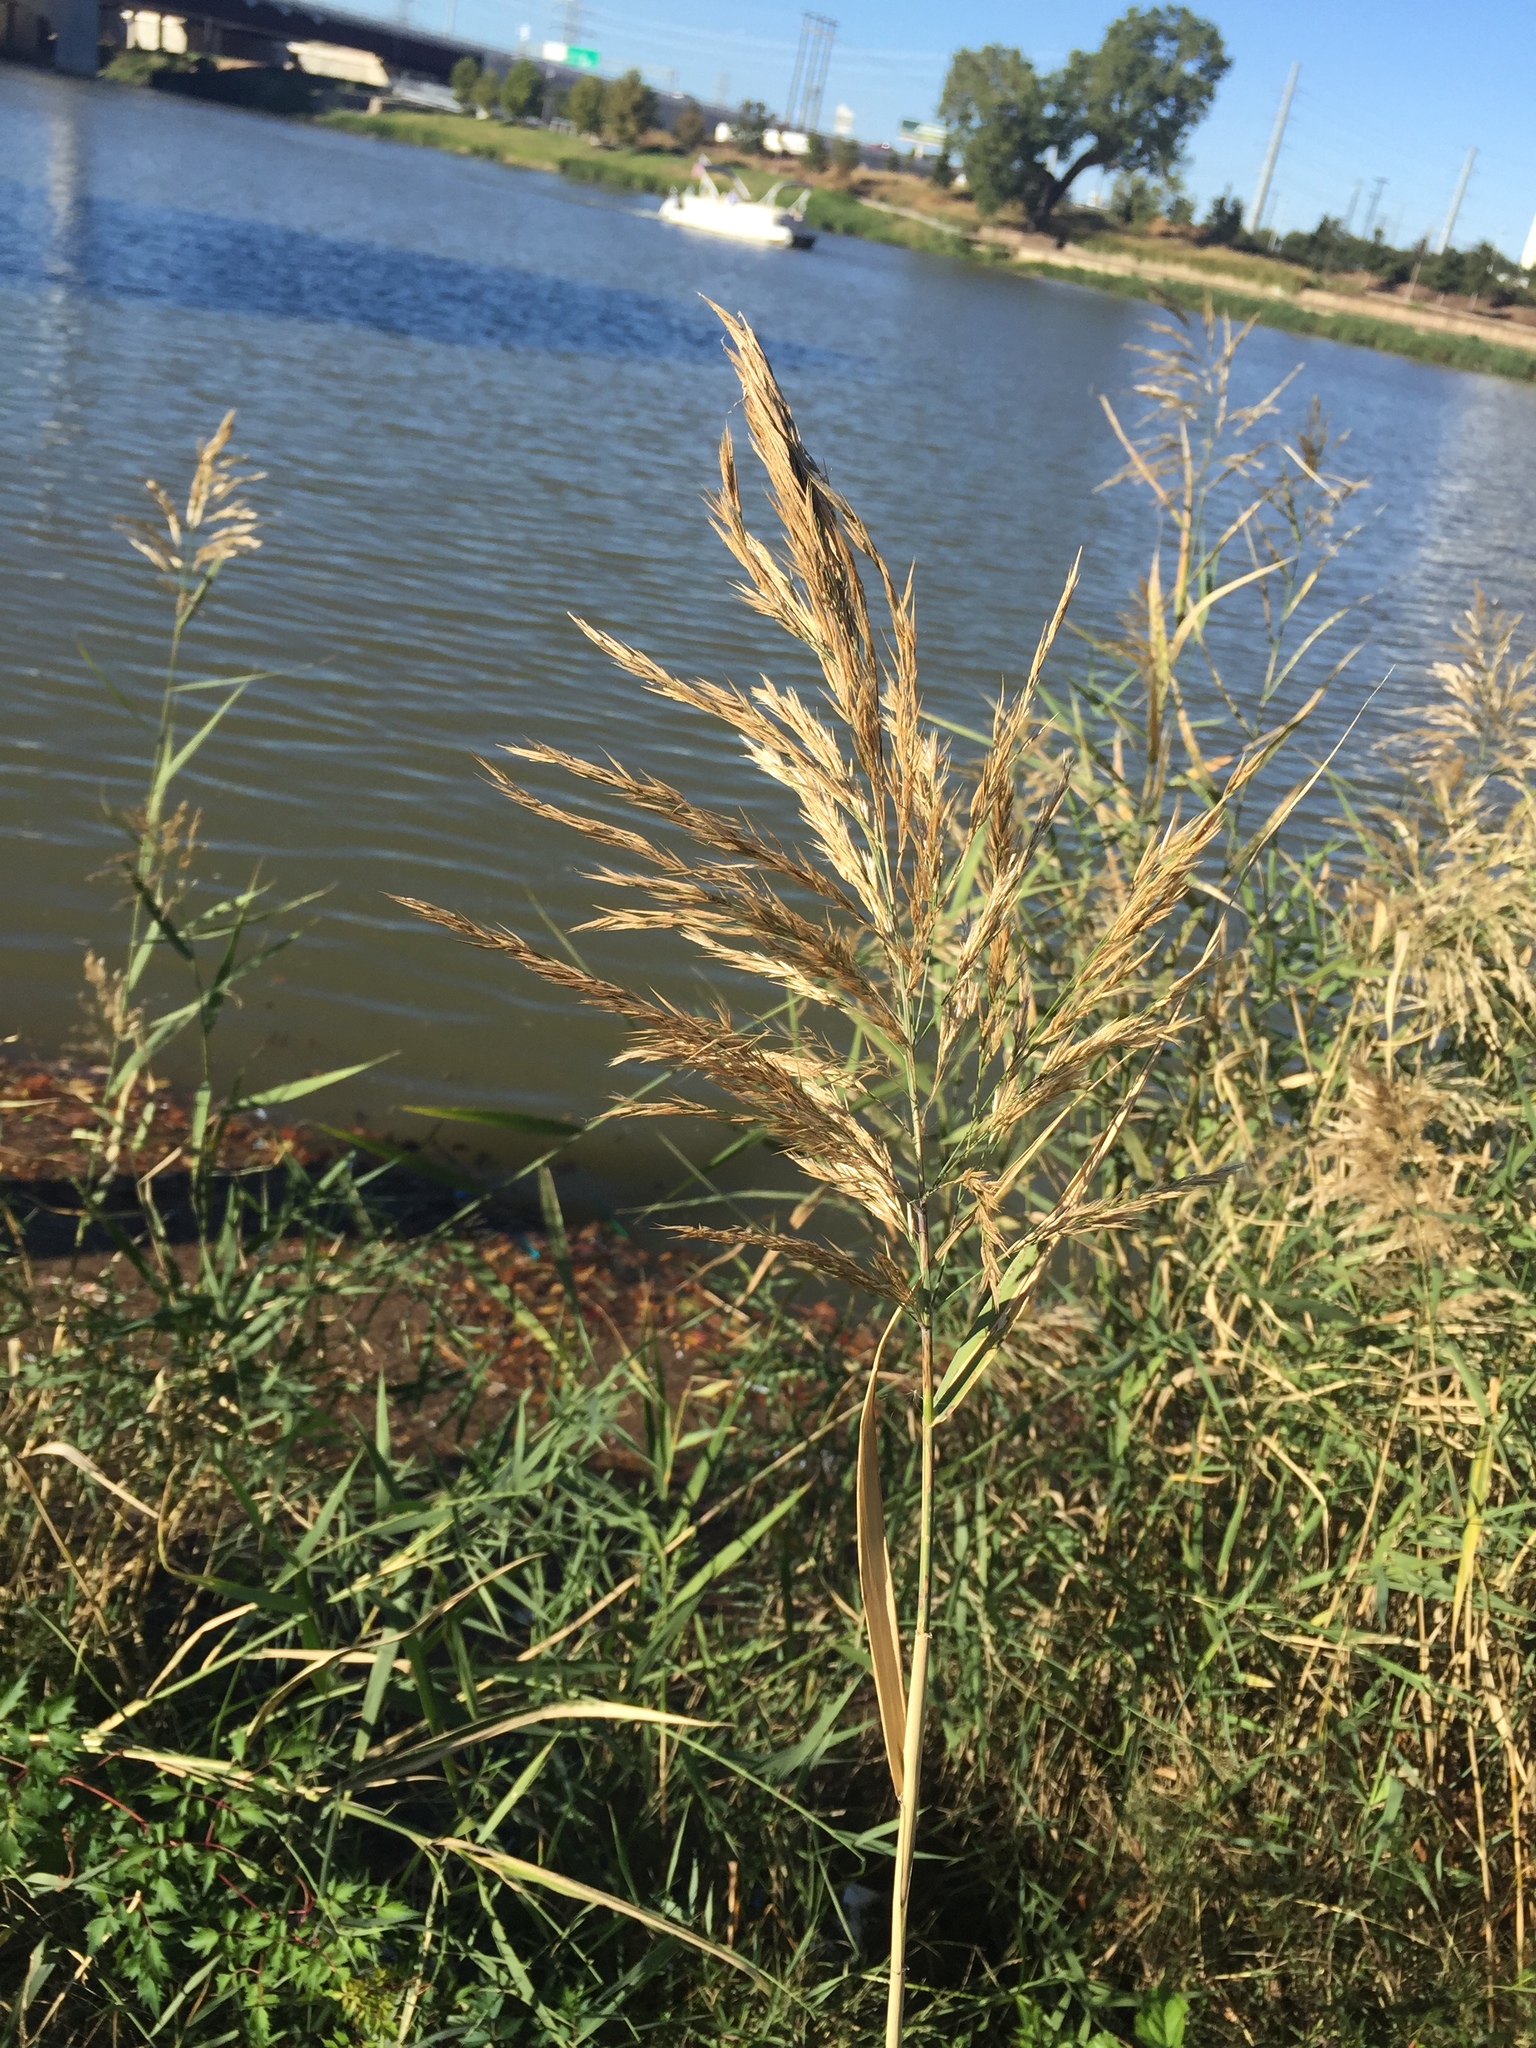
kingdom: Plantae
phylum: Tracheophyta
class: Liliopsida
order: Poales
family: Poaceae
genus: Phragmites
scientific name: Phragmites australis
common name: Common reed
